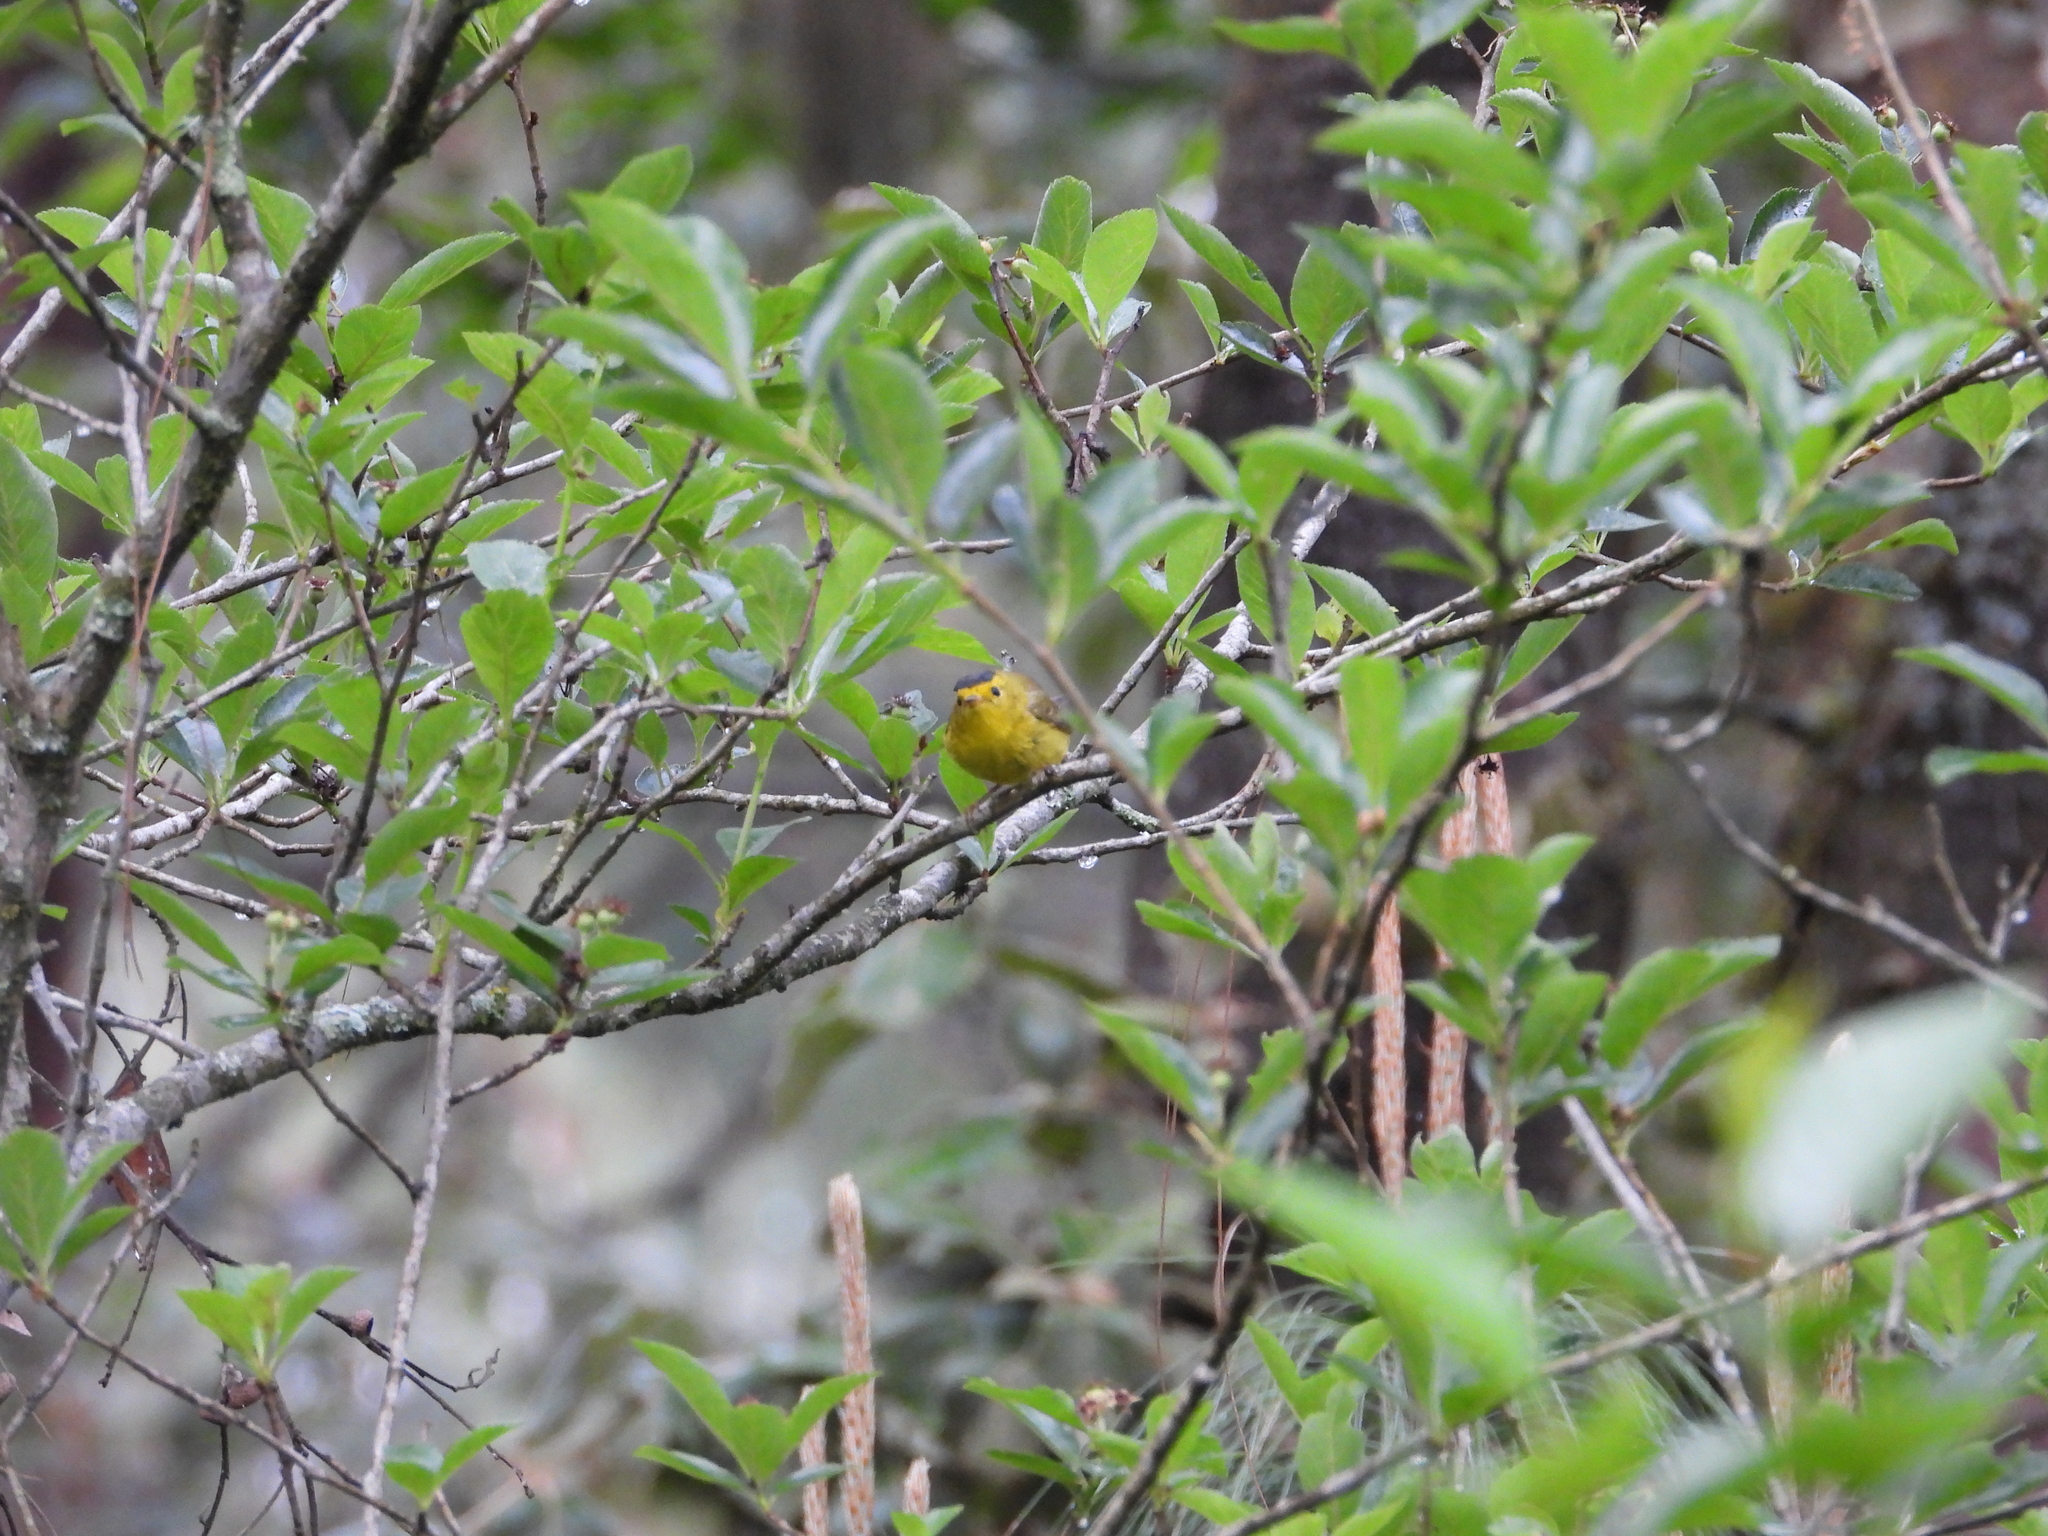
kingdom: Animalia
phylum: Chordata
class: Aves
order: Passeriformes
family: Parulidae
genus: Cardellina
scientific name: Cardellina pusilla
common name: Wilson's warbler
